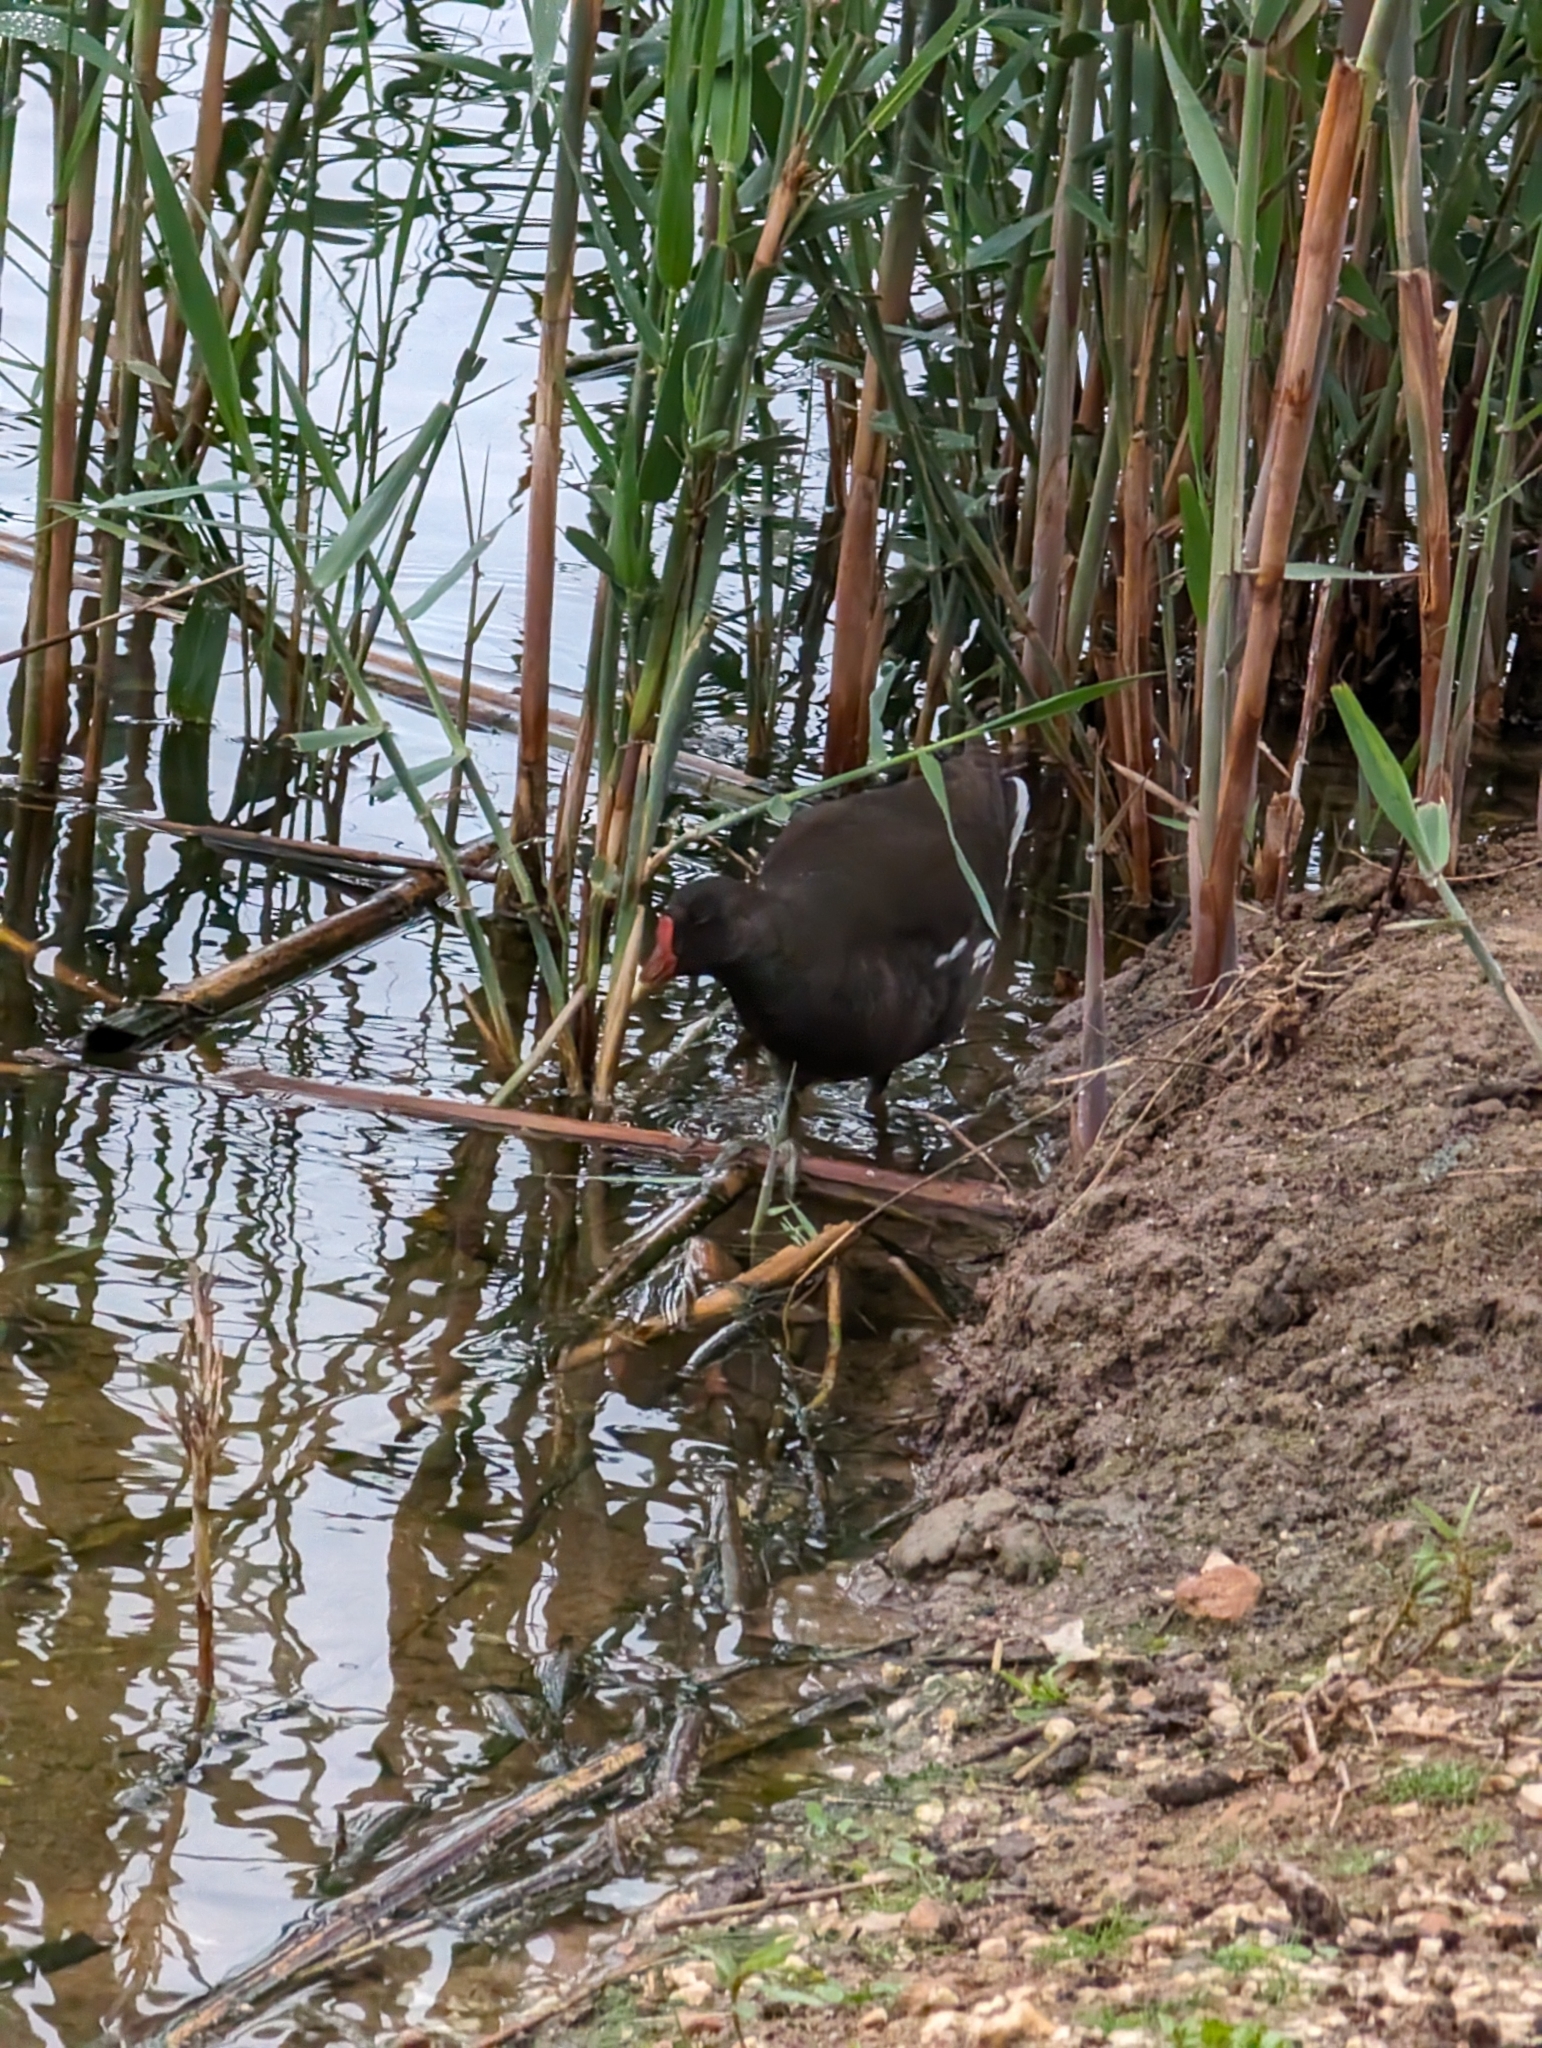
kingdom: Animalia
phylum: Chordata
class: Aves
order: Gruiformes
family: Rallidae
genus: Gallinula
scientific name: Gallinula chloropus
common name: Common moorhen
